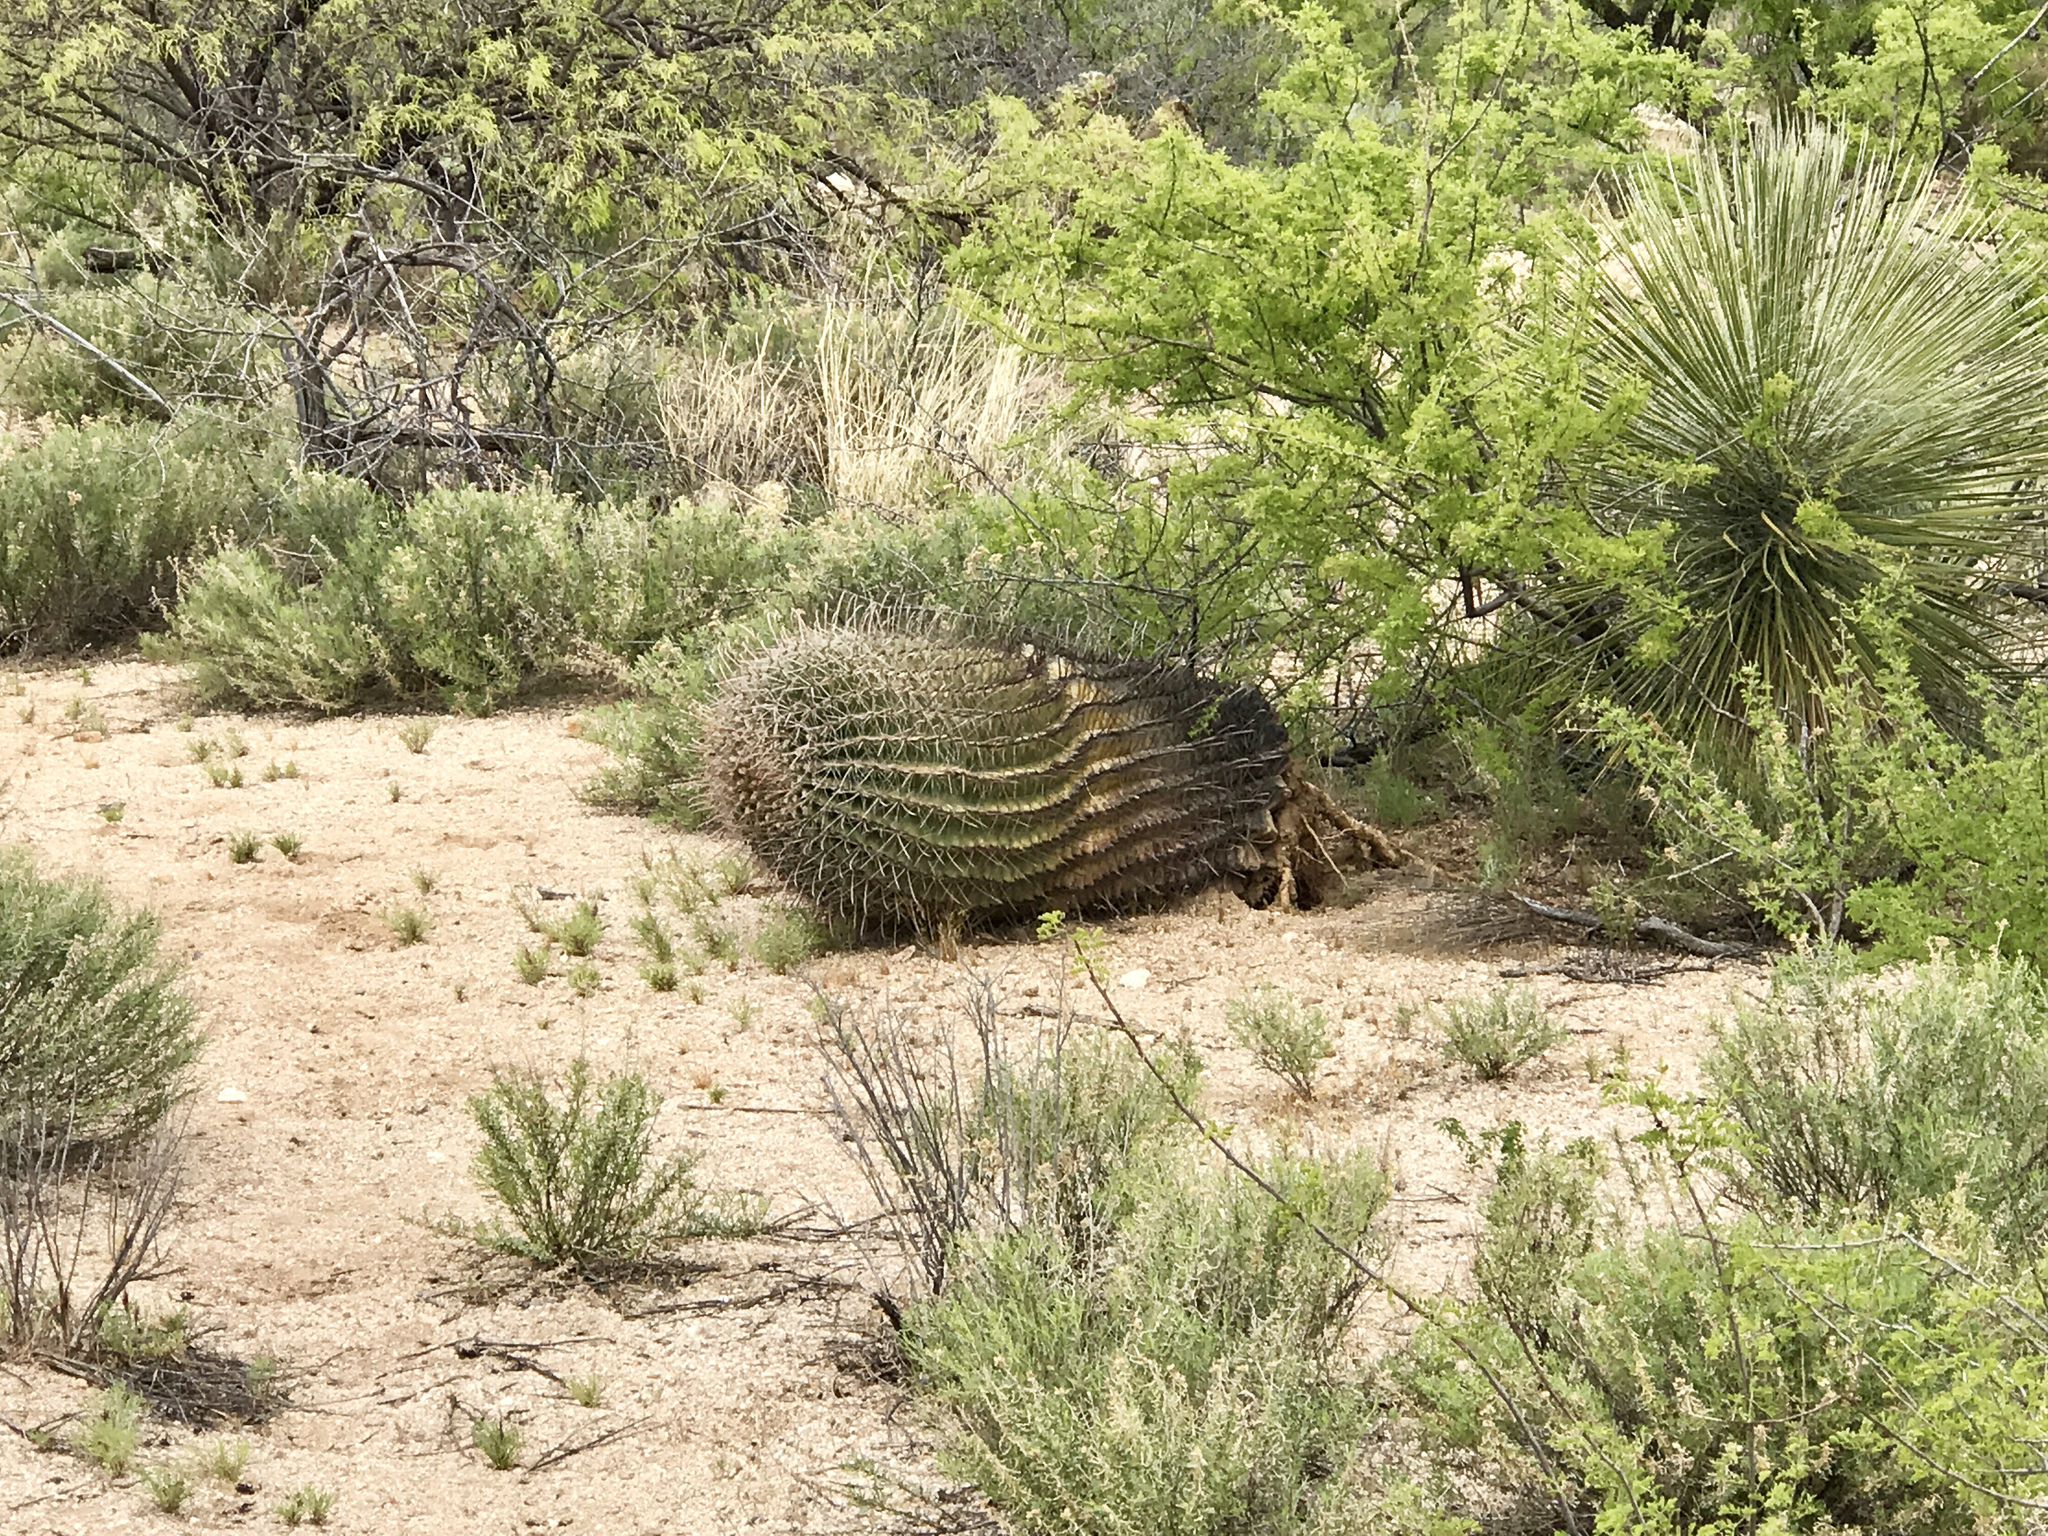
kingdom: Plantae
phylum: Tracheophyta
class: Magnoliopsida
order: Caryophyllales
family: Cactaceae
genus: Ferocactus
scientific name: Ferocactus wislizeni
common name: Candy barrel cactus
